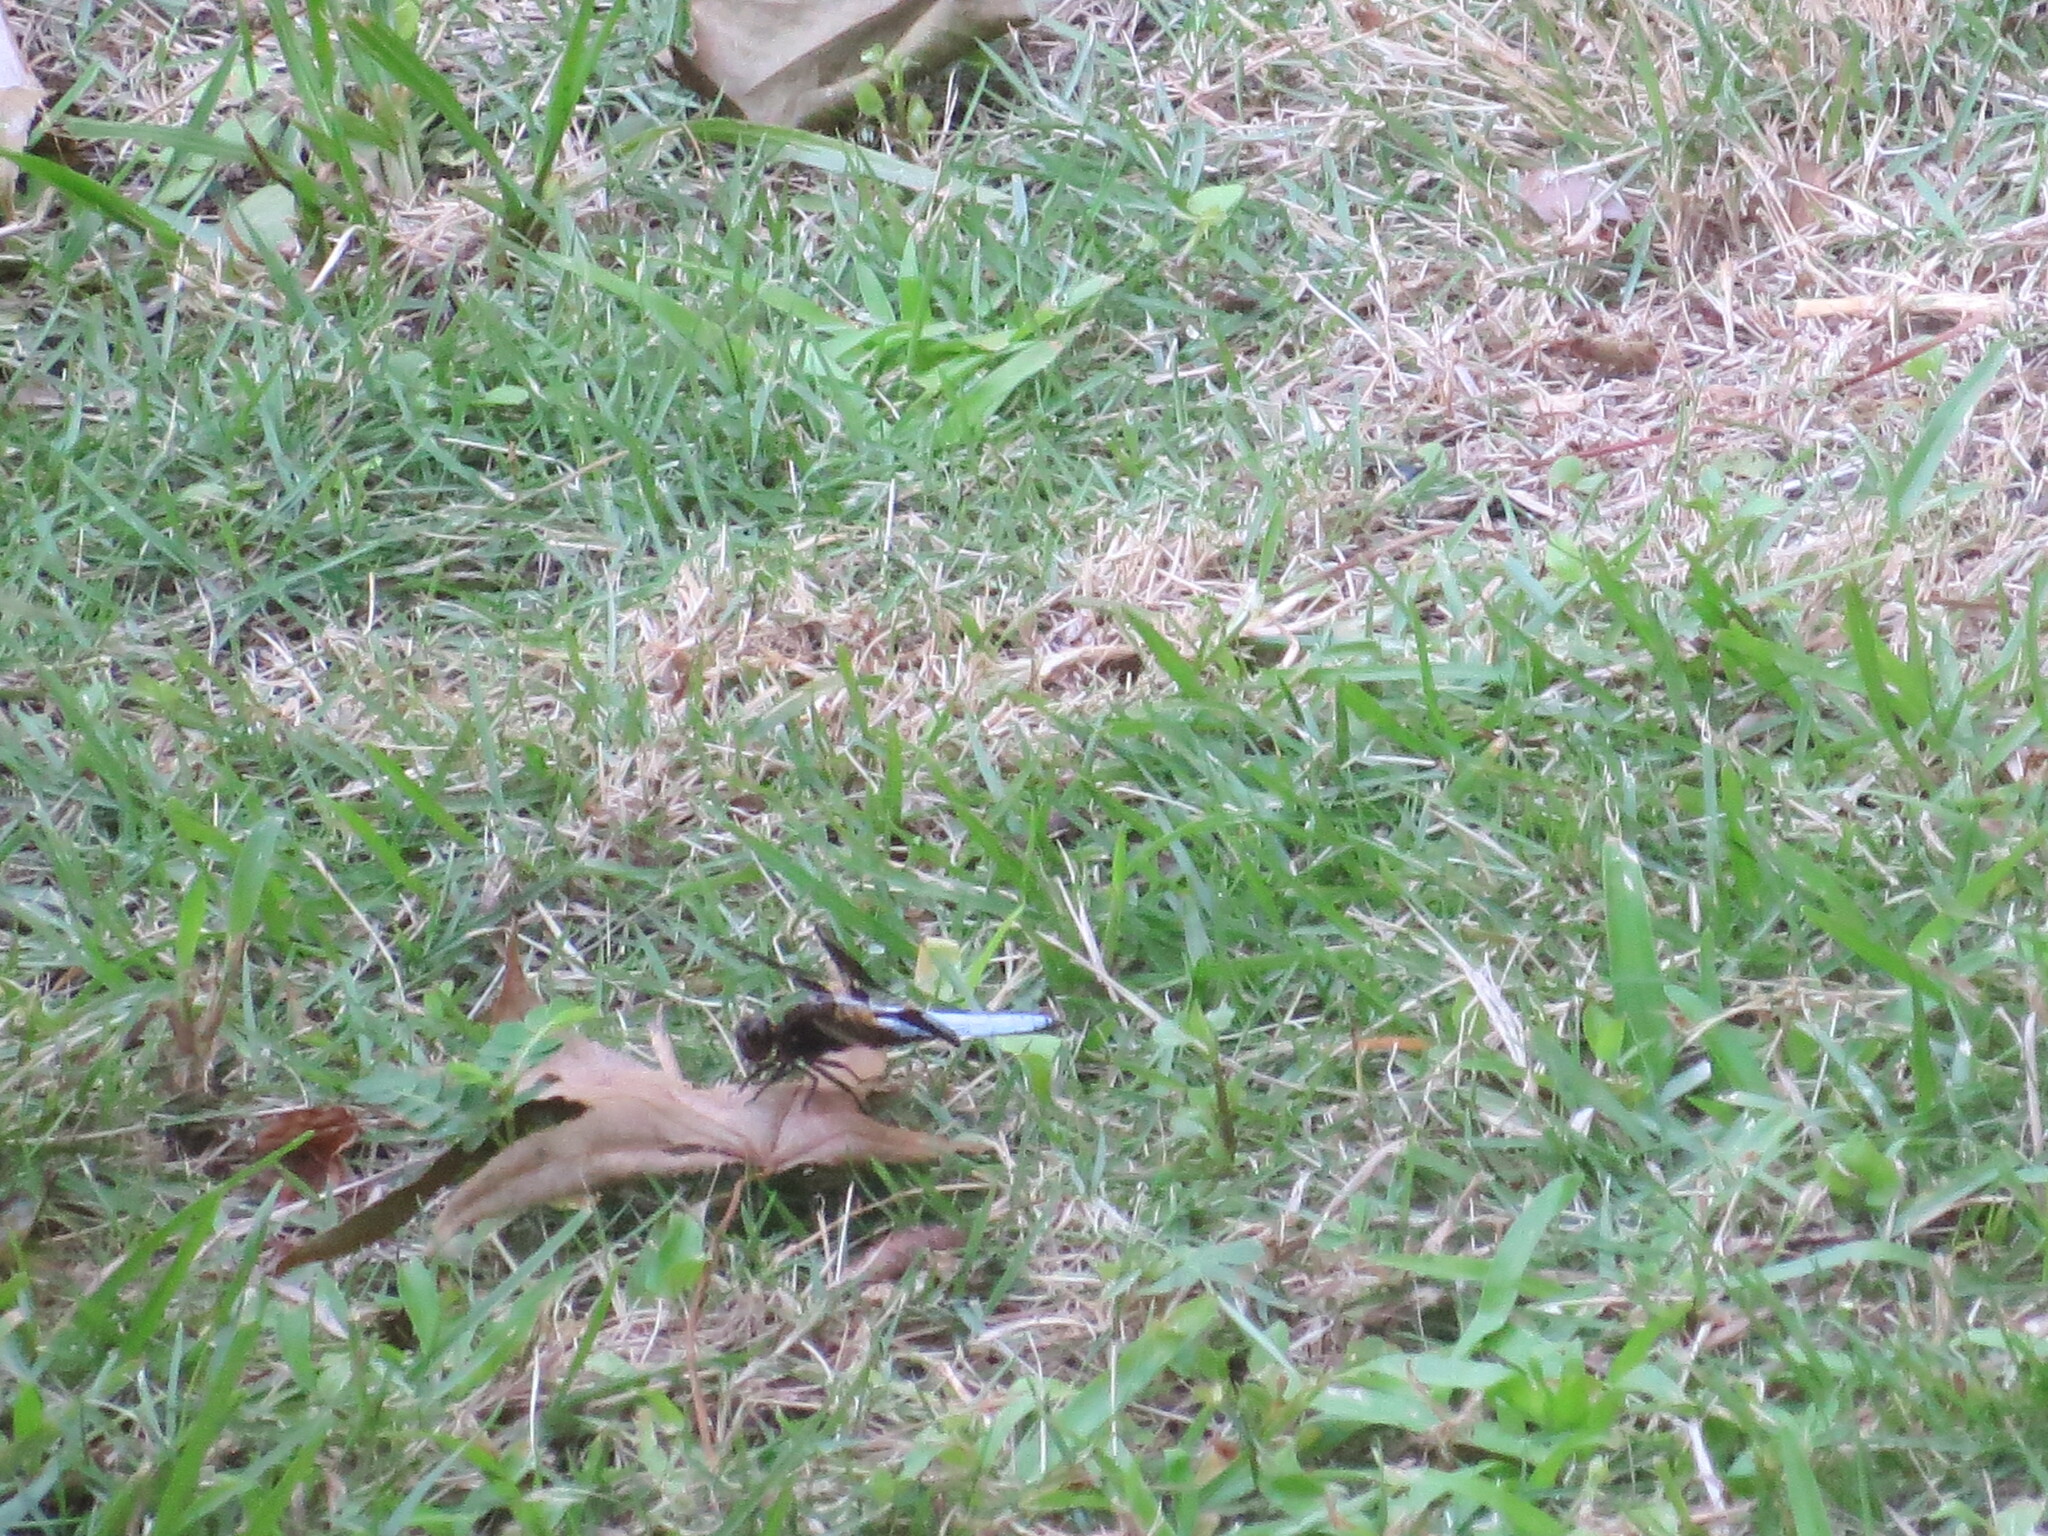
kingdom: Animalia
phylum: Arthropoda
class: Insecta
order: Odonata
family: Libellulidae
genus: Plathemis
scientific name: Plathemis lydia
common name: Common whitetail
